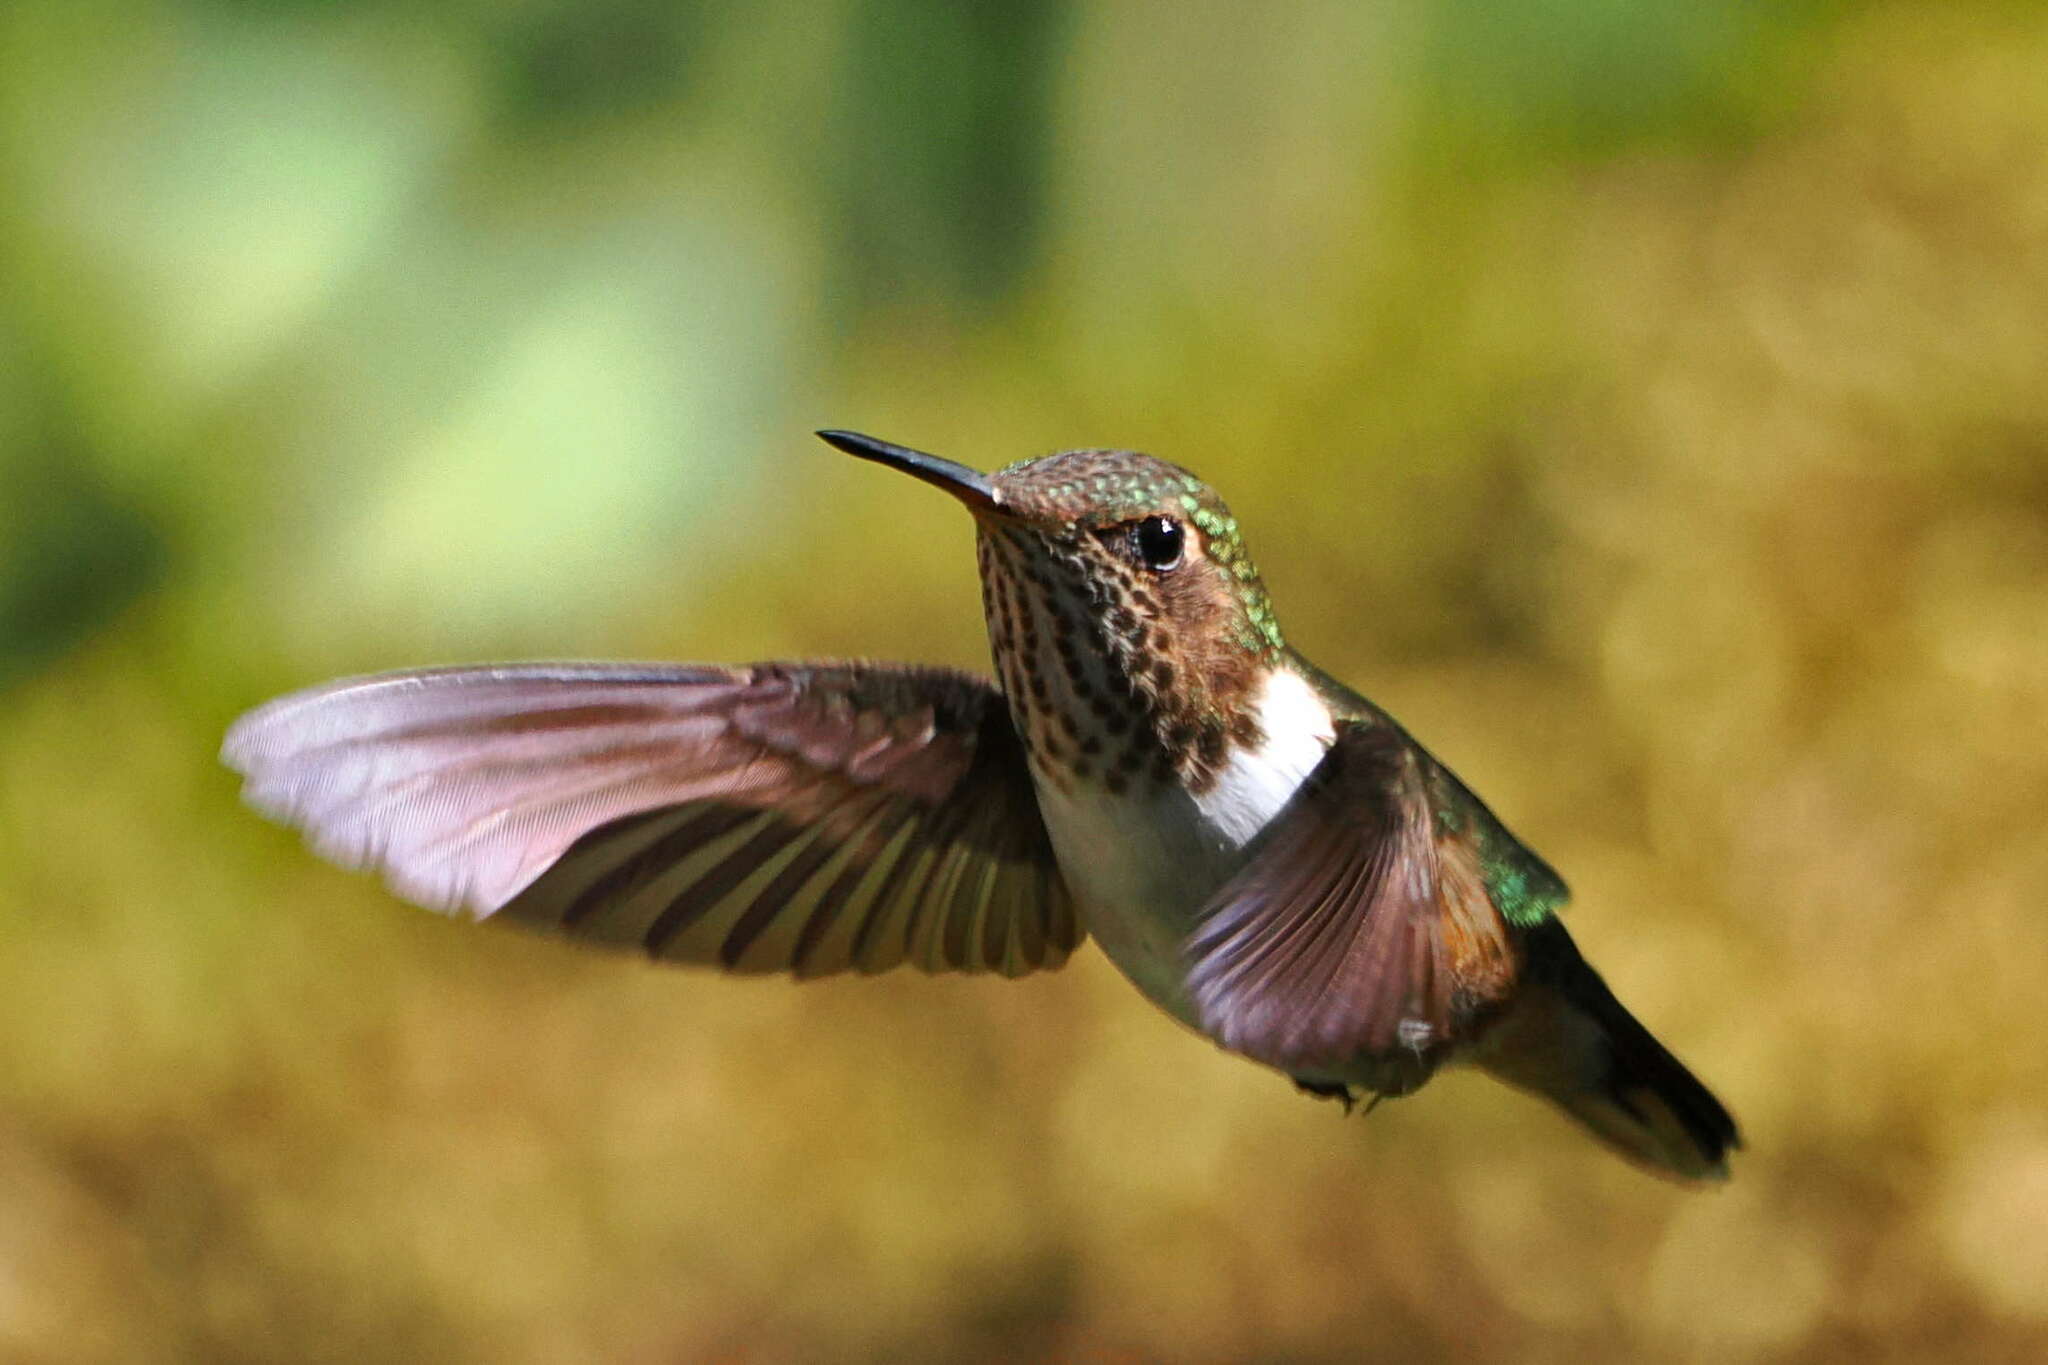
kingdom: Animalia
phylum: Chordata
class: Aves
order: Apodiformes
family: Trochilidae
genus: Selasphorus
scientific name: Selasphorus flammula
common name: Volcano hummingbird
